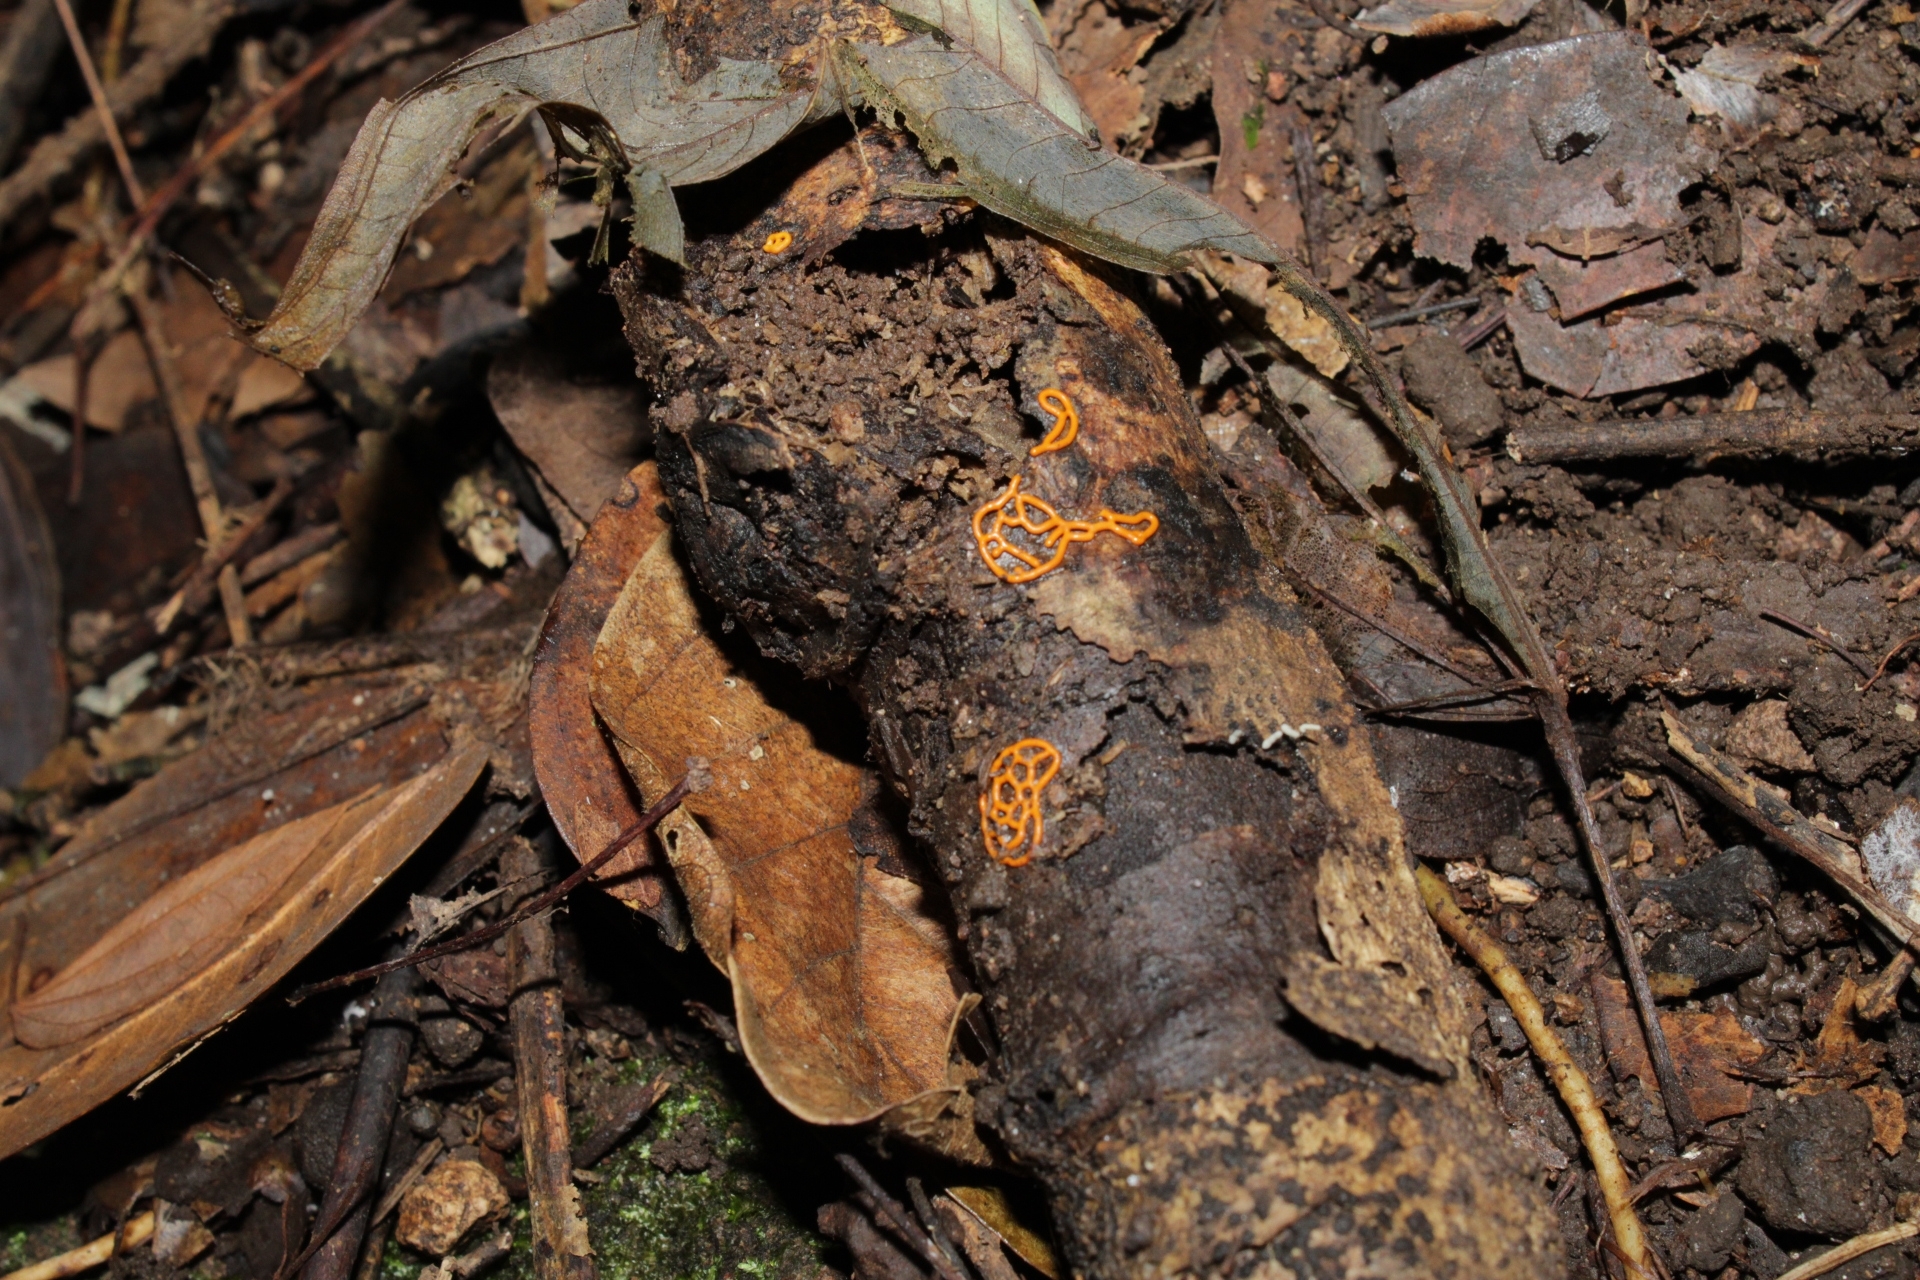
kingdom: Protozoa
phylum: Mycetozoa
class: Myxomycetes
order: Trichiales
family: Arcyriaceae
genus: Hemitrichia
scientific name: Hemitrichia serpula
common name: Pretzel slime mold
